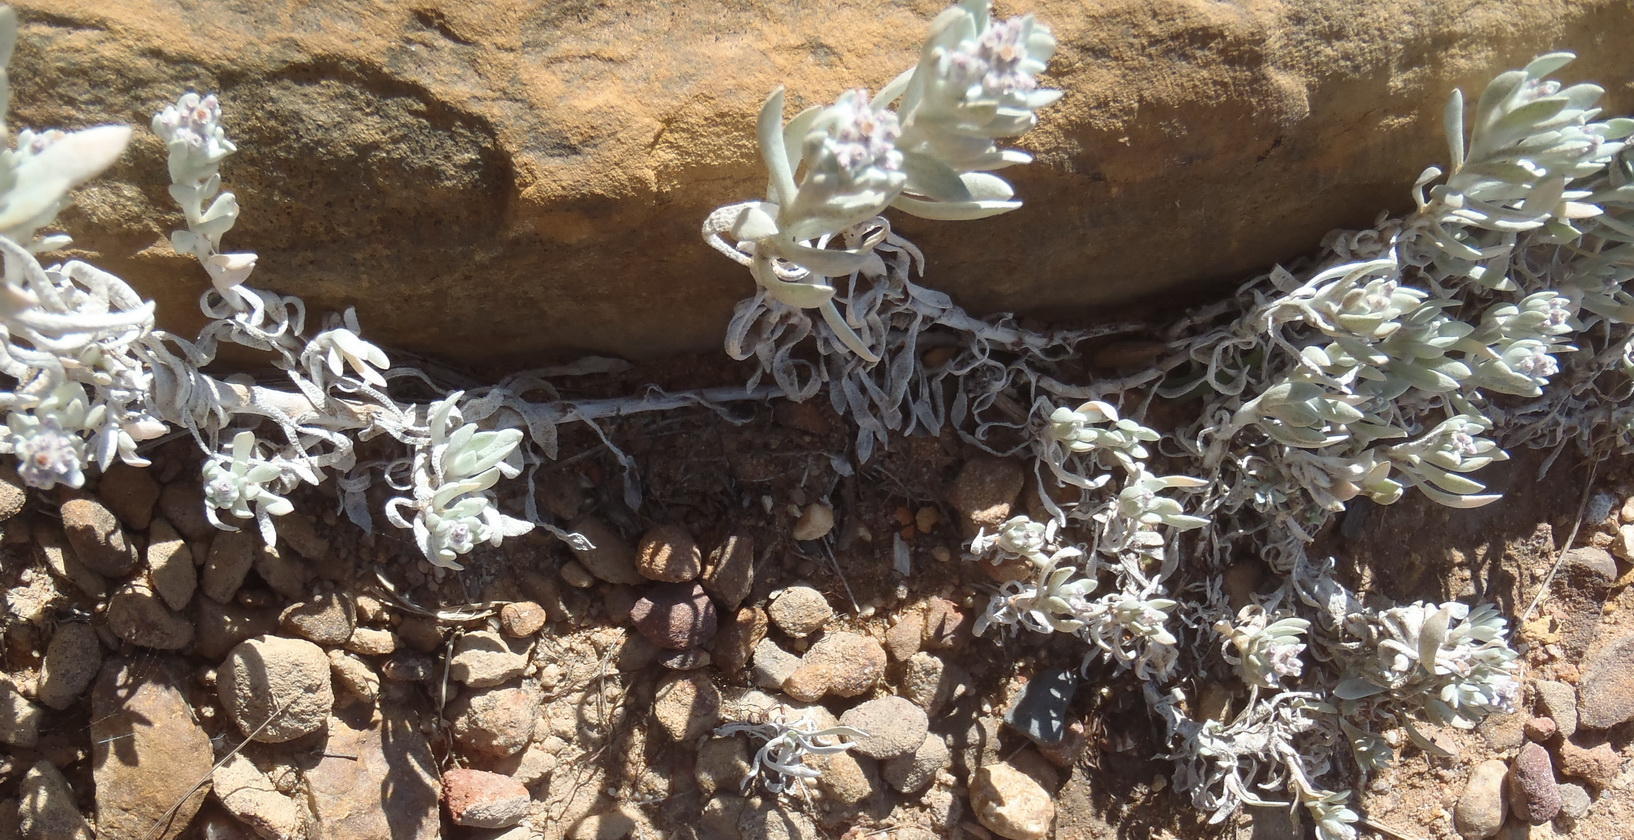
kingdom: Plantae
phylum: Tracheophyta
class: Magnoliopsida
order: Asterales
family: Asteraceae
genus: Vellereophyton
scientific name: Vellereophyton dealbatum
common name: White-cudweed
